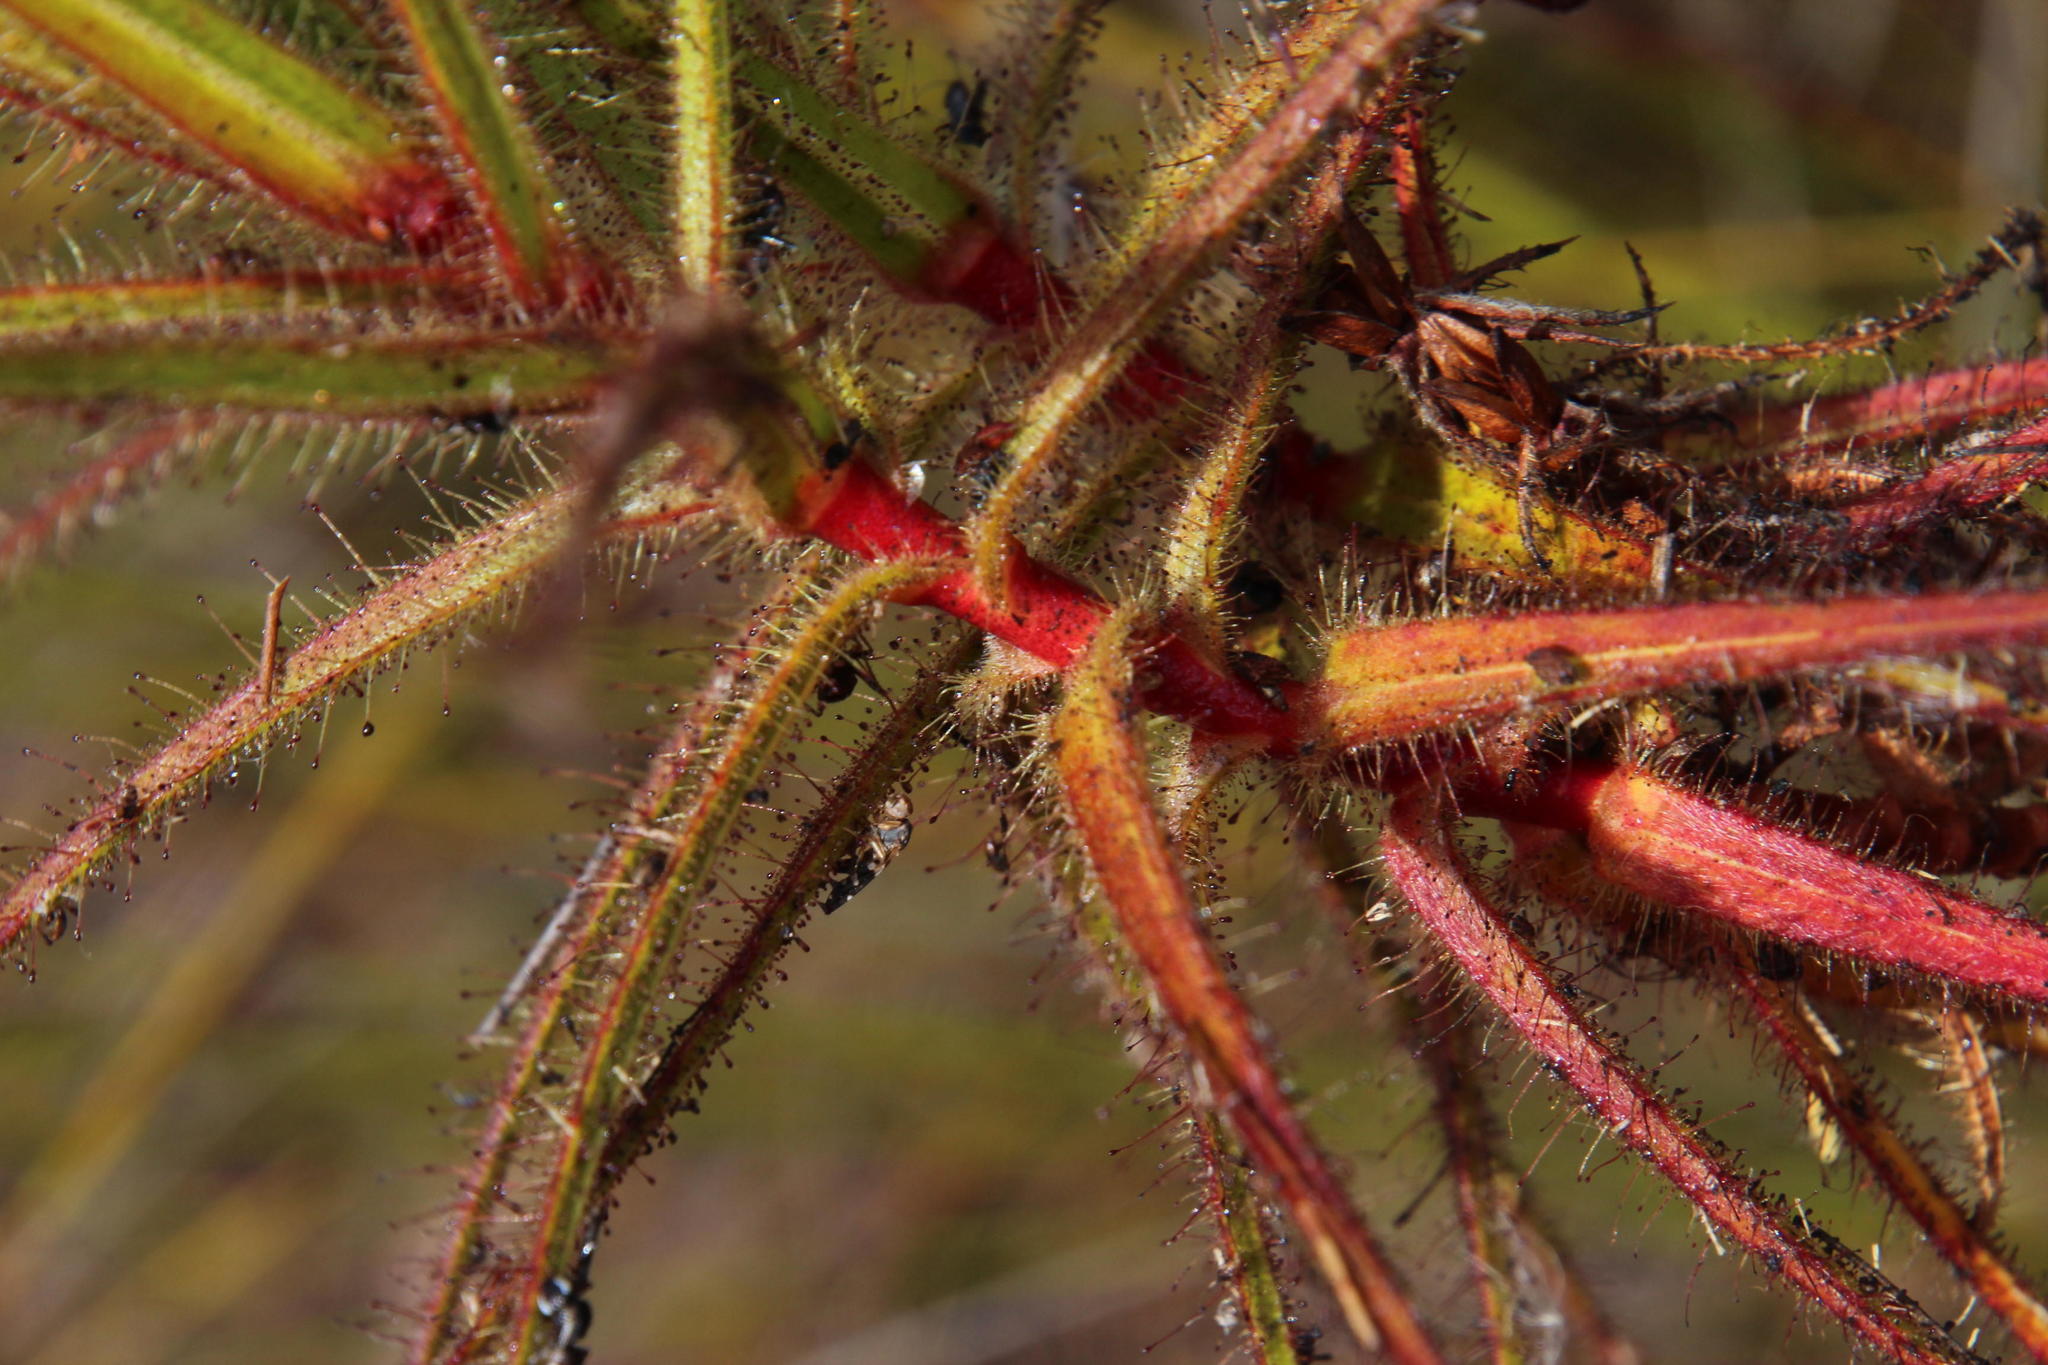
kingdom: Plantae
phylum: Tracheophyta
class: Magnoliopsida
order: Ericales
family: Roridulaceae
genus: Roridula
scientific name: Roridula gorgonias
